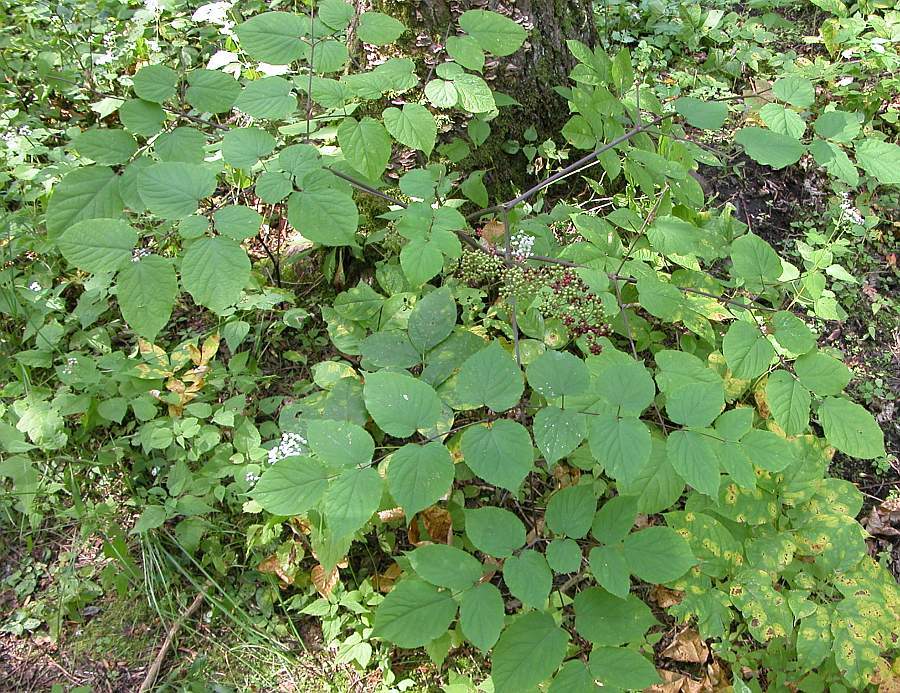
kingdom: Plantae
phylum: Tracheophyta
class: Magnoliopsida
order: Apiales
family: Araliaceae
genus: Aralia
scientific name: Aralia racemosa
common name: American-spikenard
